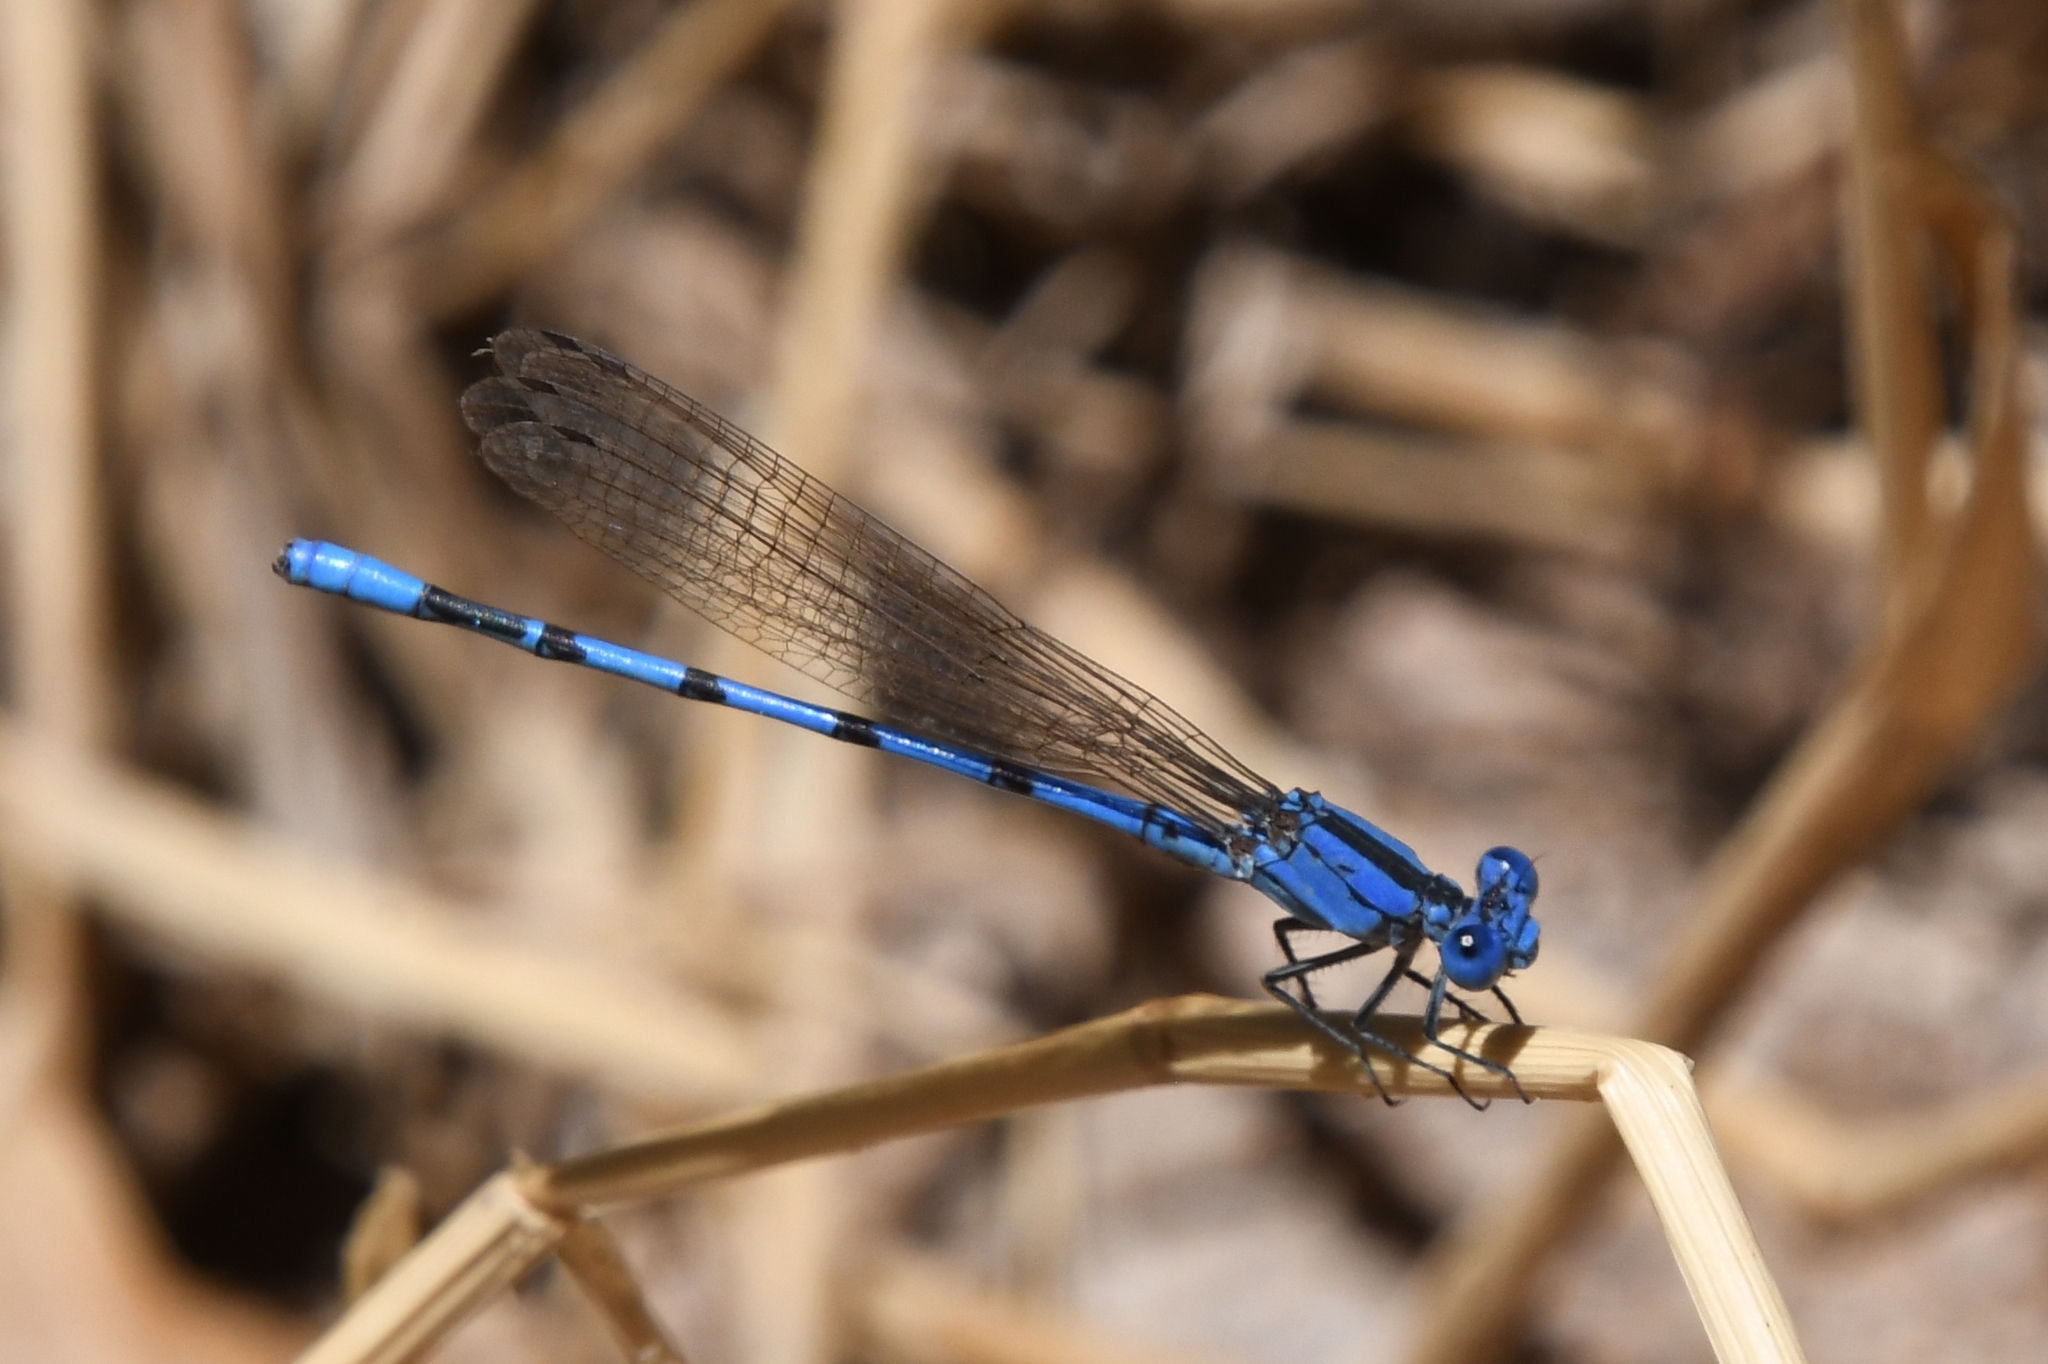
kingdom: Animalia
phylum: Arthropoda
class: Insecta
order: Odonata
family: Coenagrionidae
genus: Argia
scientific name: Argia nahuana
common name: Aztec dancer
